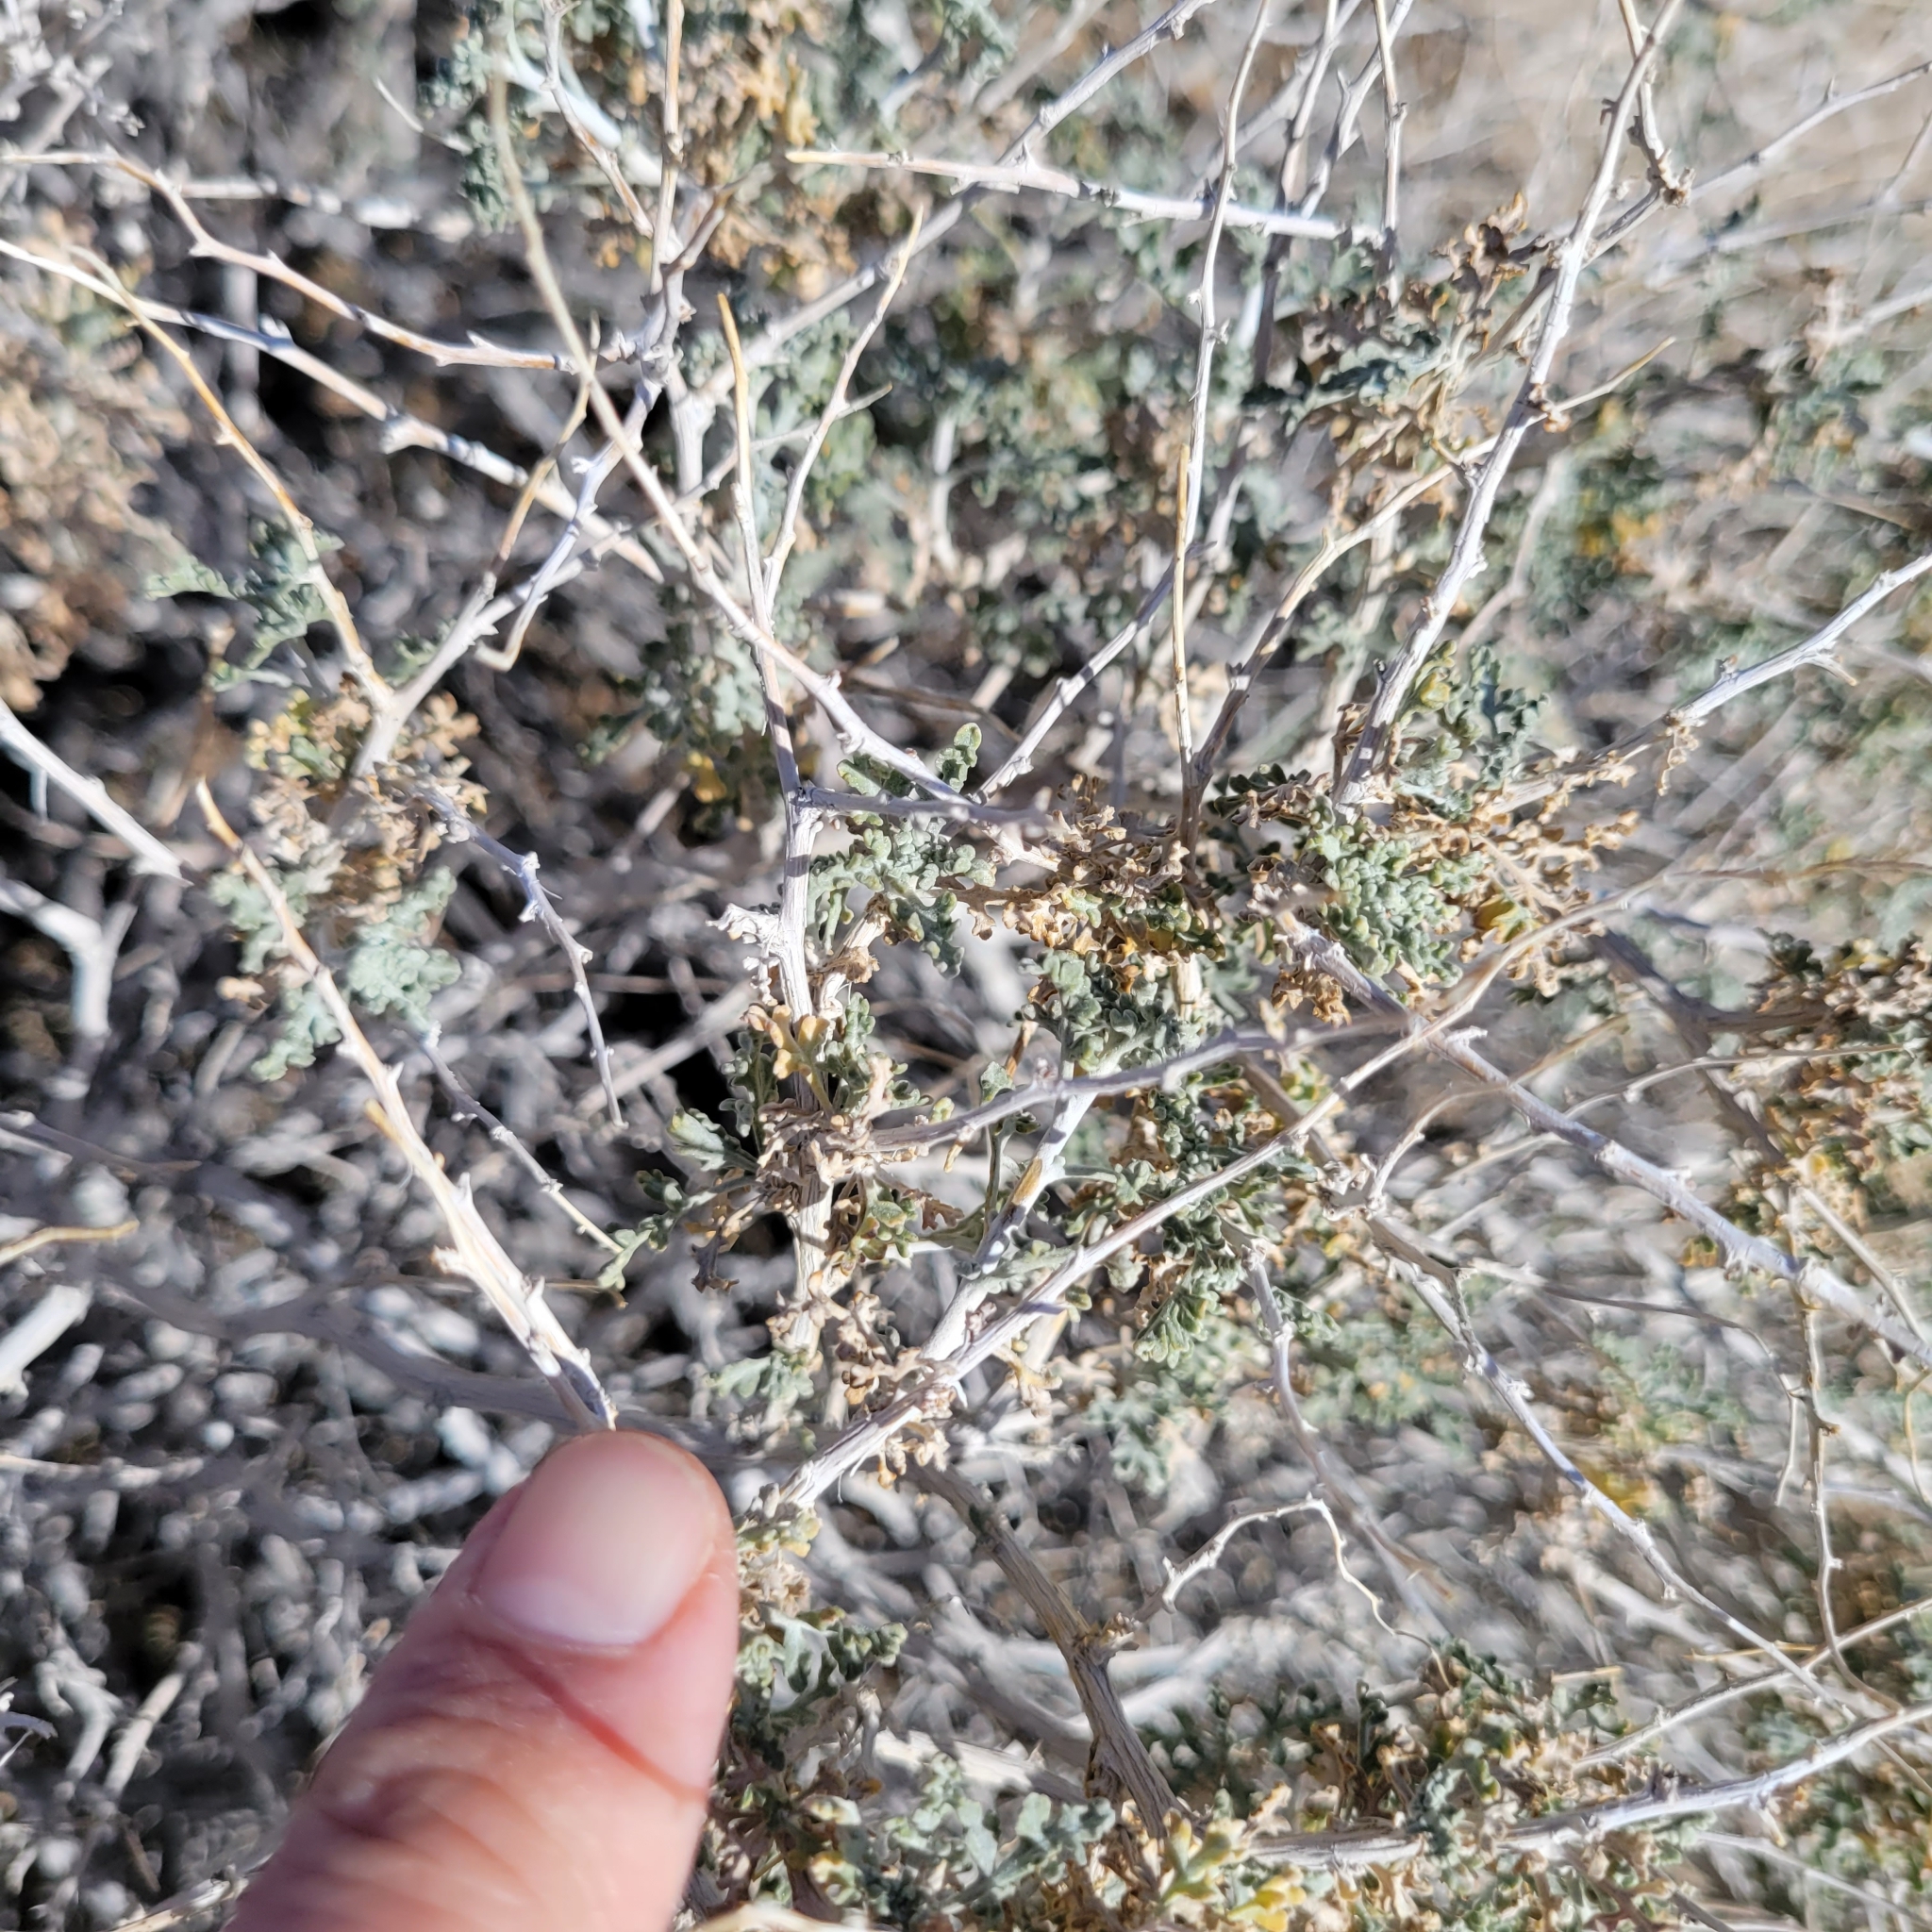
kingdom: Plantae
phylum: Tracheophyta
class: Magnoliopsida
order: Asterales
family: Asteraceae
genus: Ambrosia
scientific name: Ambrosia dumosa
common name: Bur-sage
